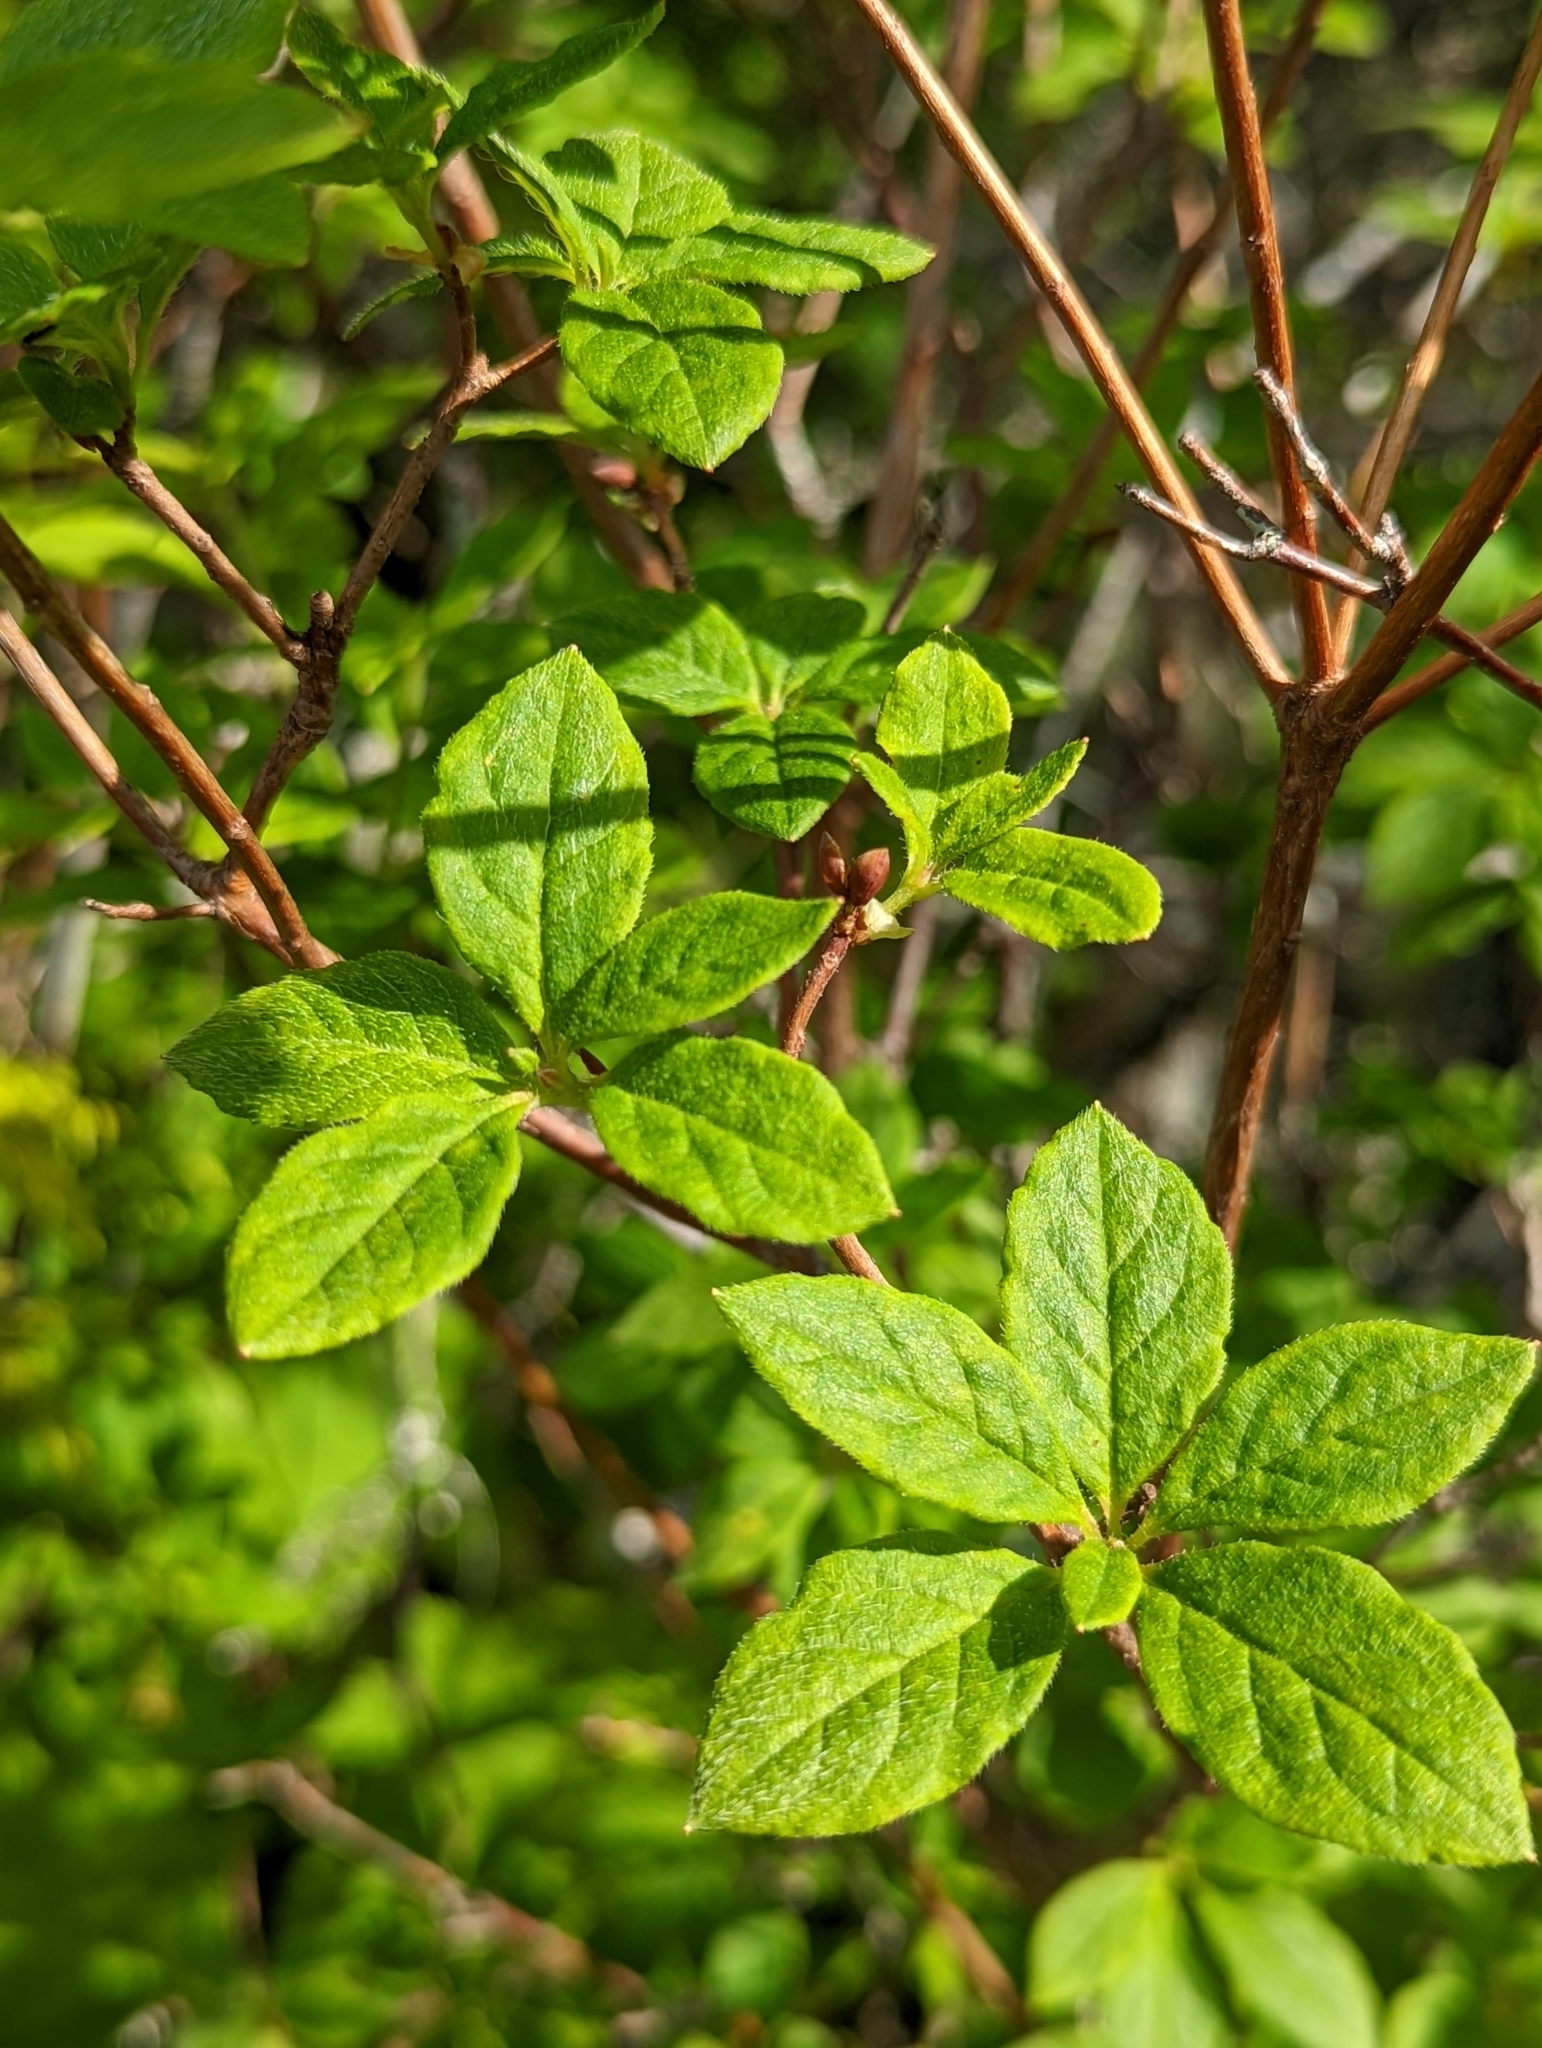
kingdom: Plantae
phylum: Tracheophyta
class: Magnoliopsida
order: Ericales
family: Ericaceae
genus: Rhododendron
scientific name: Rhododendron menziesii
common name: Pacific menziesia
